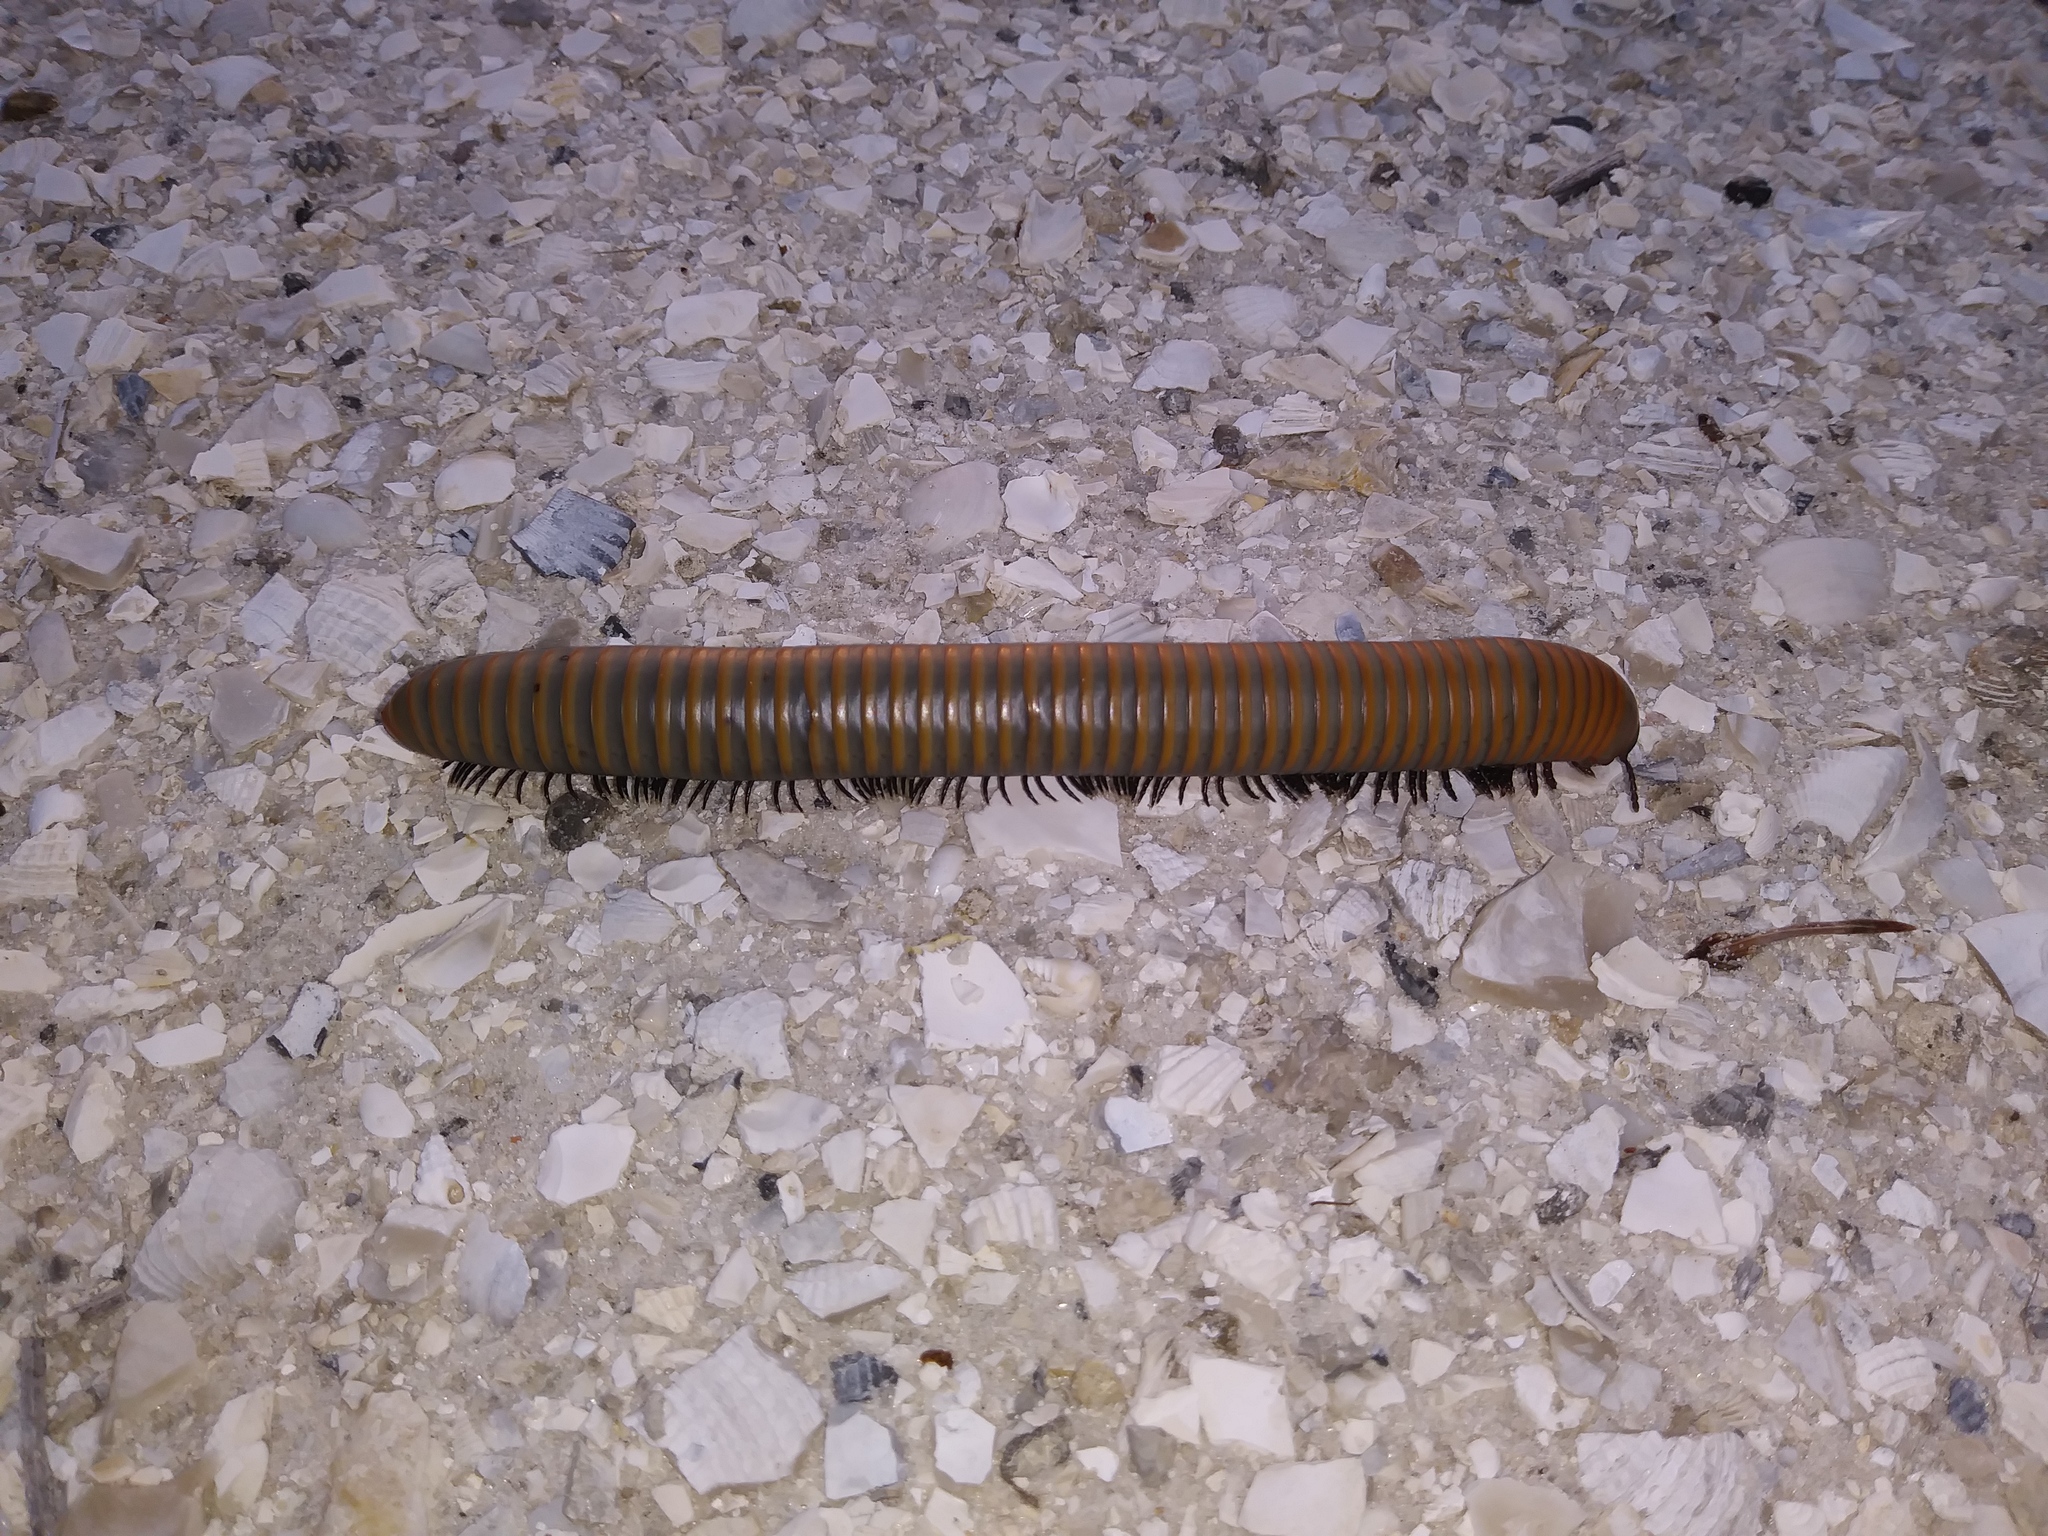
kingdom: Animalia
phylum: Arthropoda
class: Diplopoda
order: Spirobolida
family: Spirobolidae
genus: Narceus
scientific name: Narceus gordanus
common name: Grayish-green millipede
